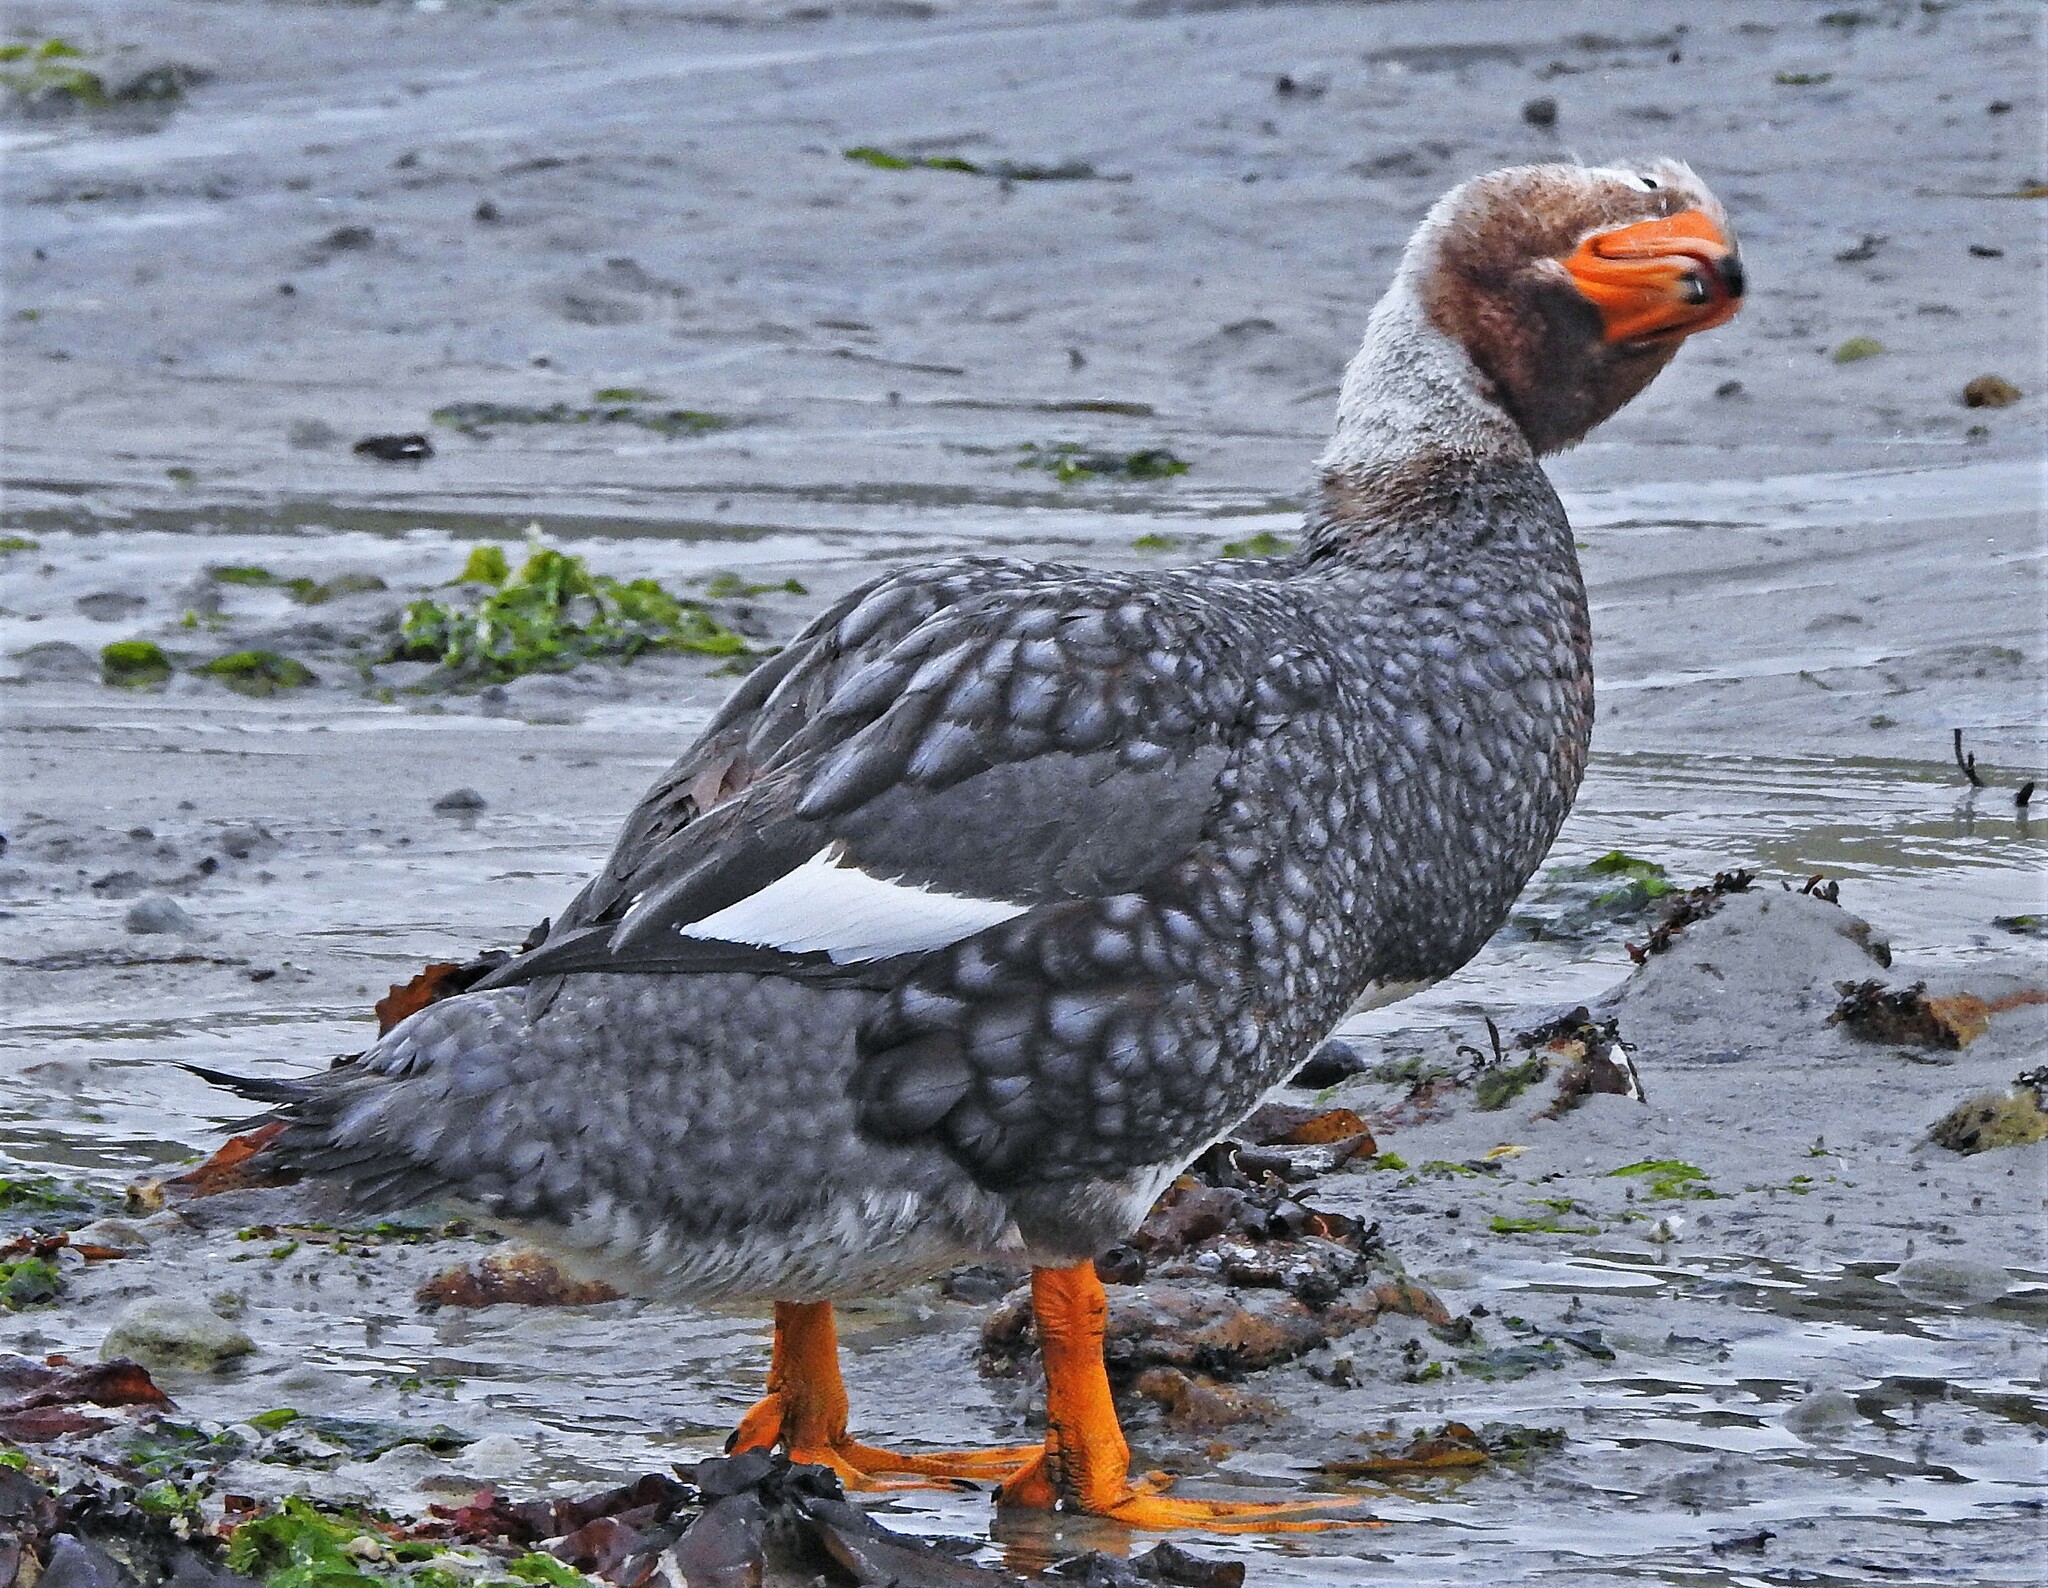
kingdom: Animalia
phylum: Chordata
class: Aves
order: Anseriformes
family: Anatidae
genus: Tachyeres
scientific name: Tachyeres brachypterus
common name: Falkland steamer duck
